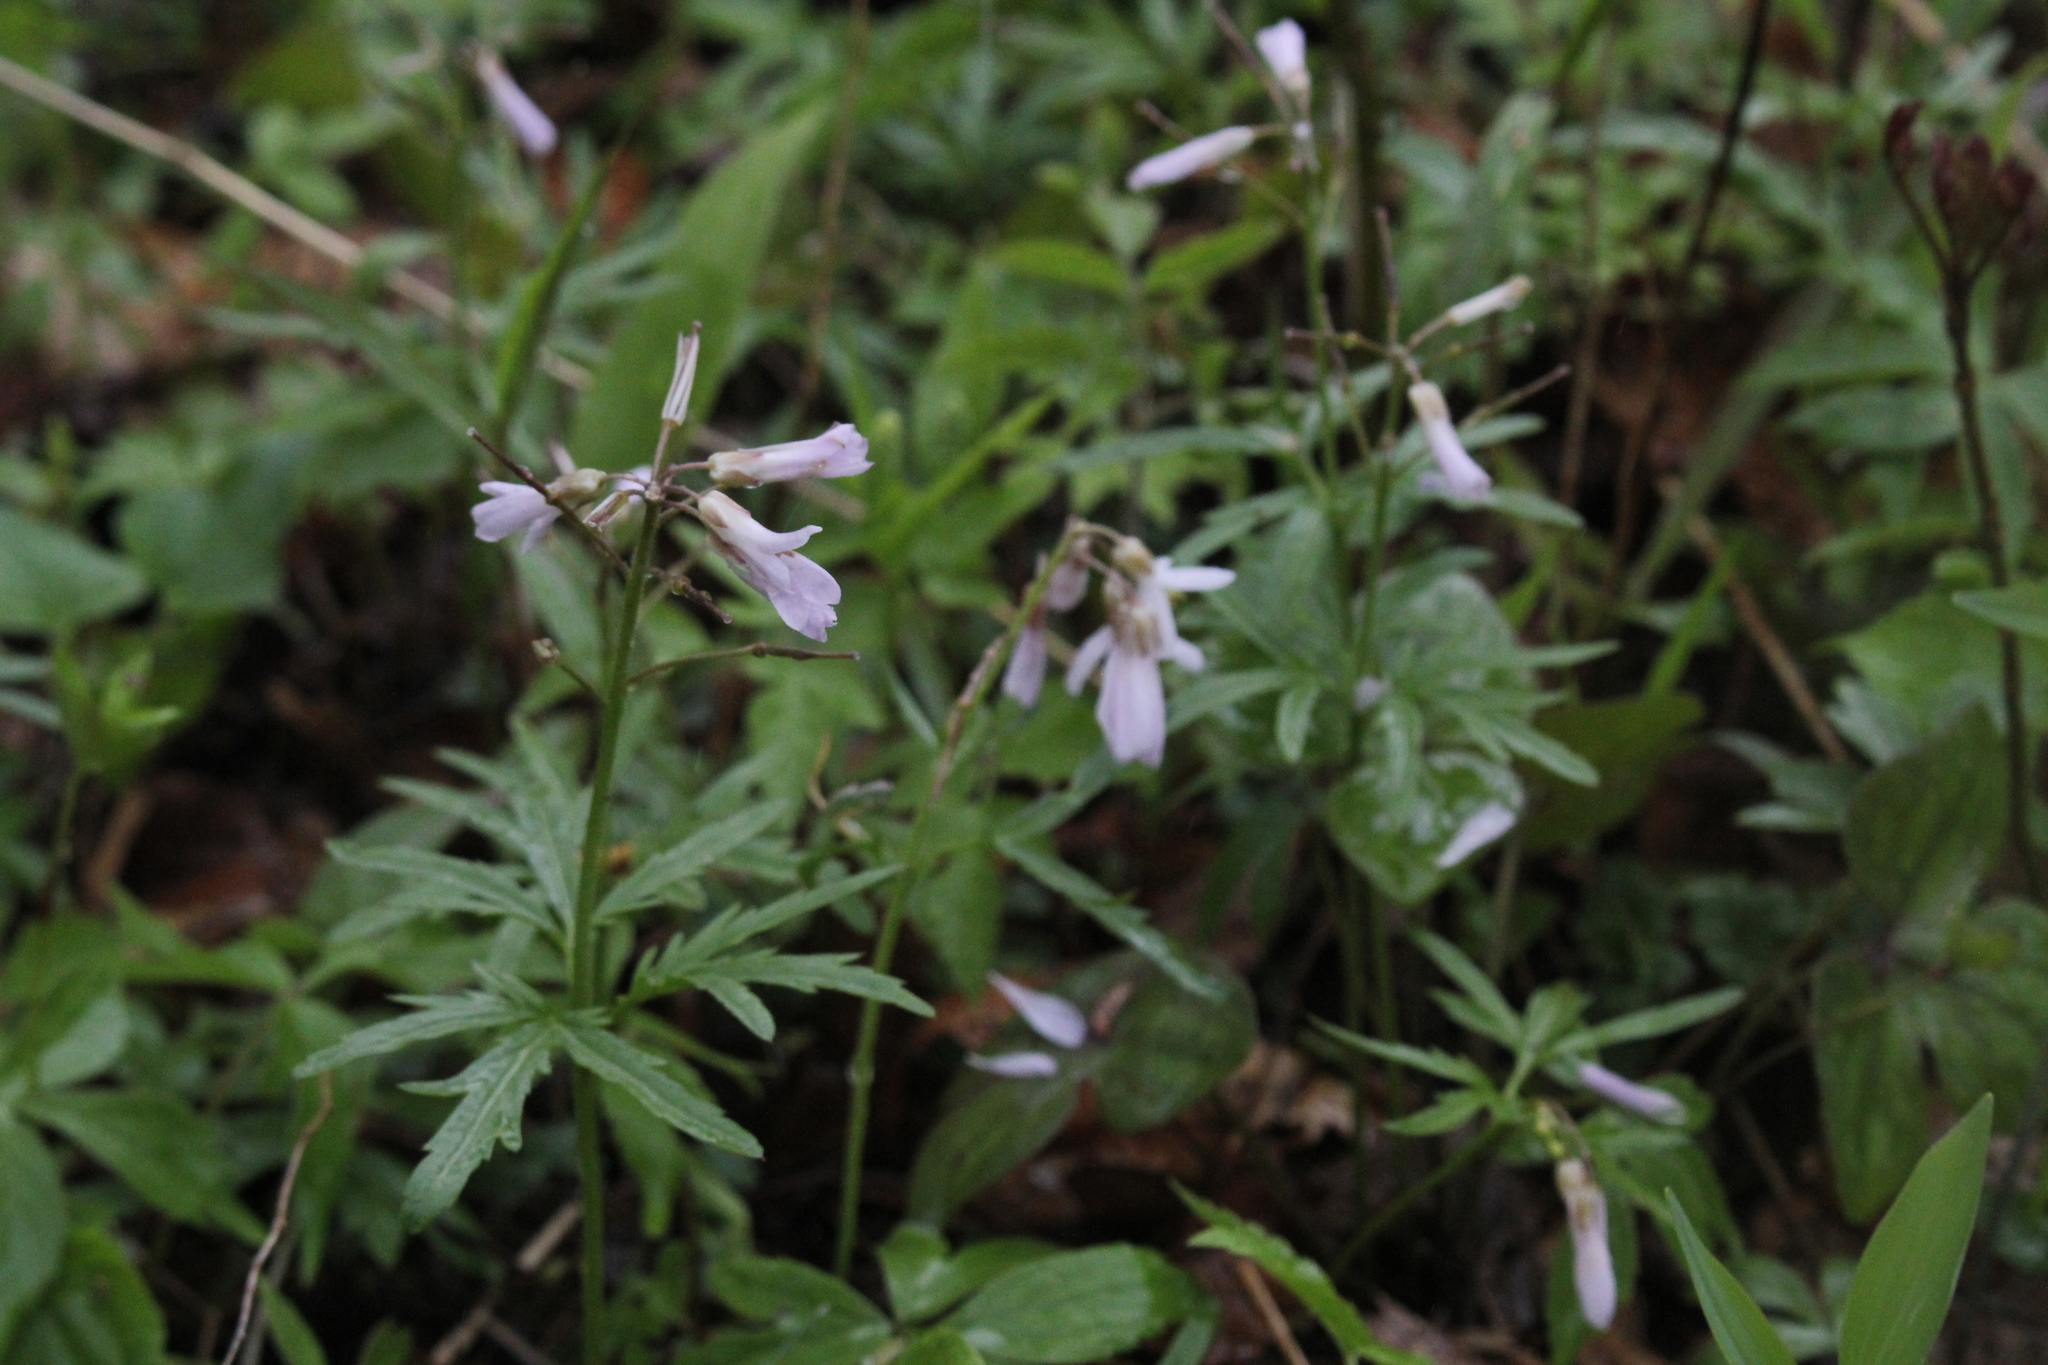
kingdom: Plantae
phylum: Tracheophyta
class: Magnoliopsida
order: Brassicales
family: Brassicaceae
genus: Cardamine
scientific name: Cardamine concatenata
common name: Cut-leaf toothcup
